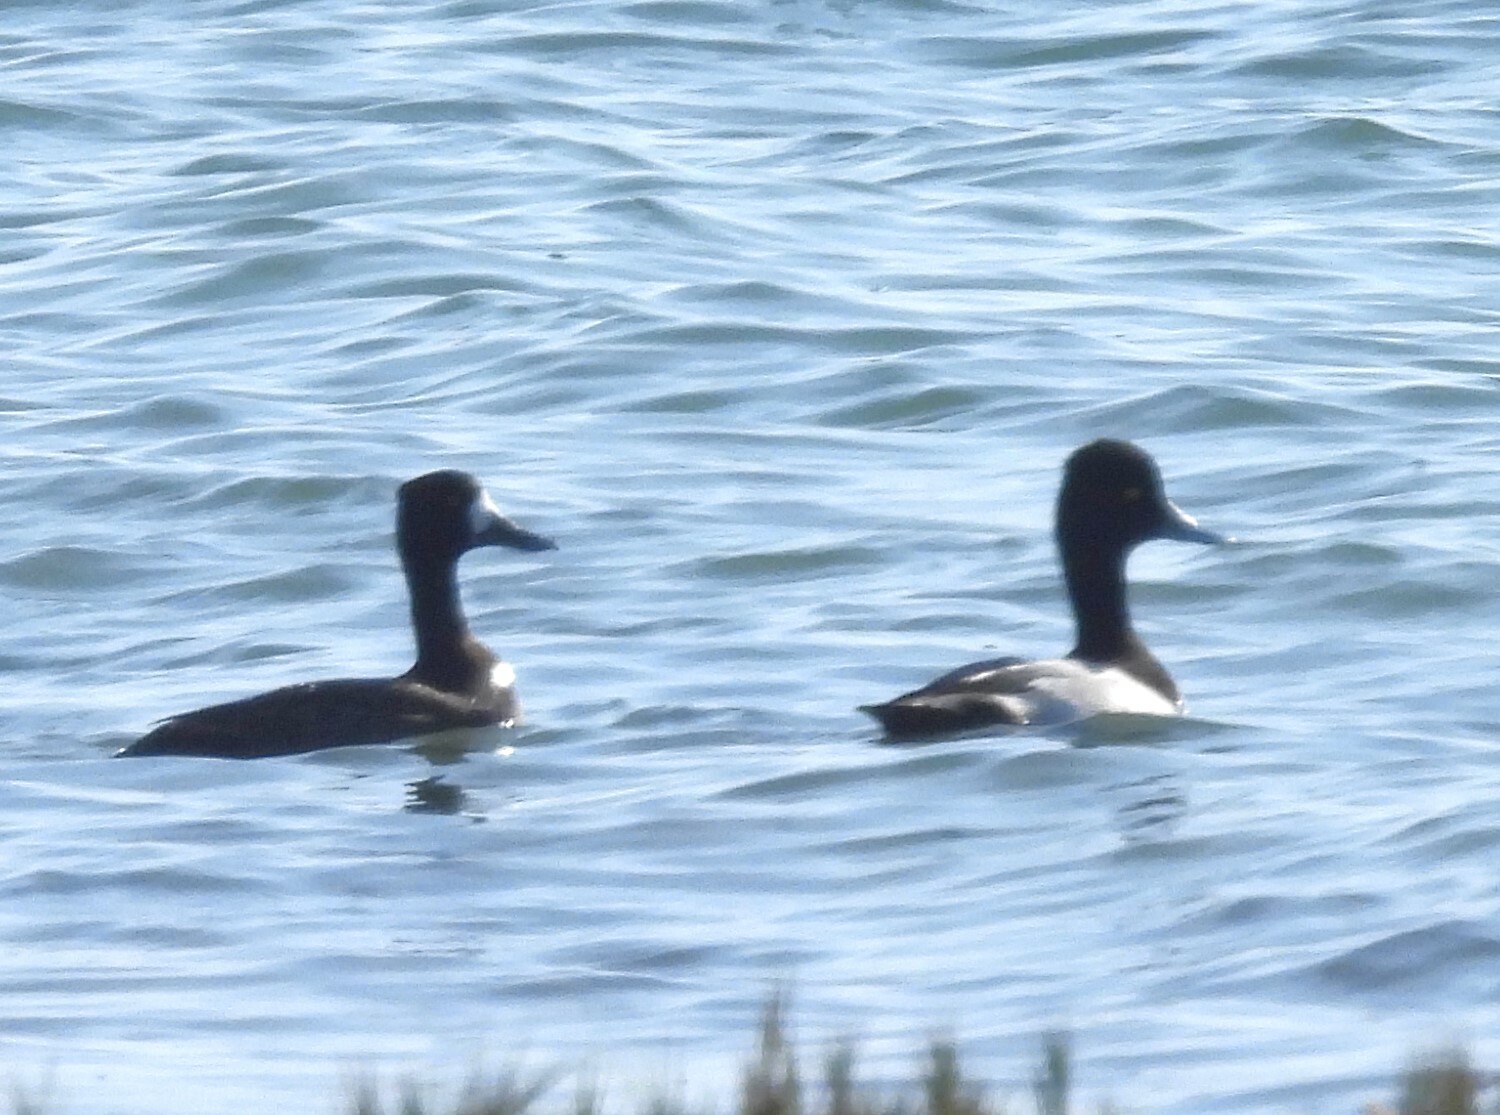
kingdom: Animalia
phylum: Chordata
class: Aves
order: Anseriformes
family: Anatidae
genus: Aythya
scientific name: Aythya affinis
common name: Lesser scaup
